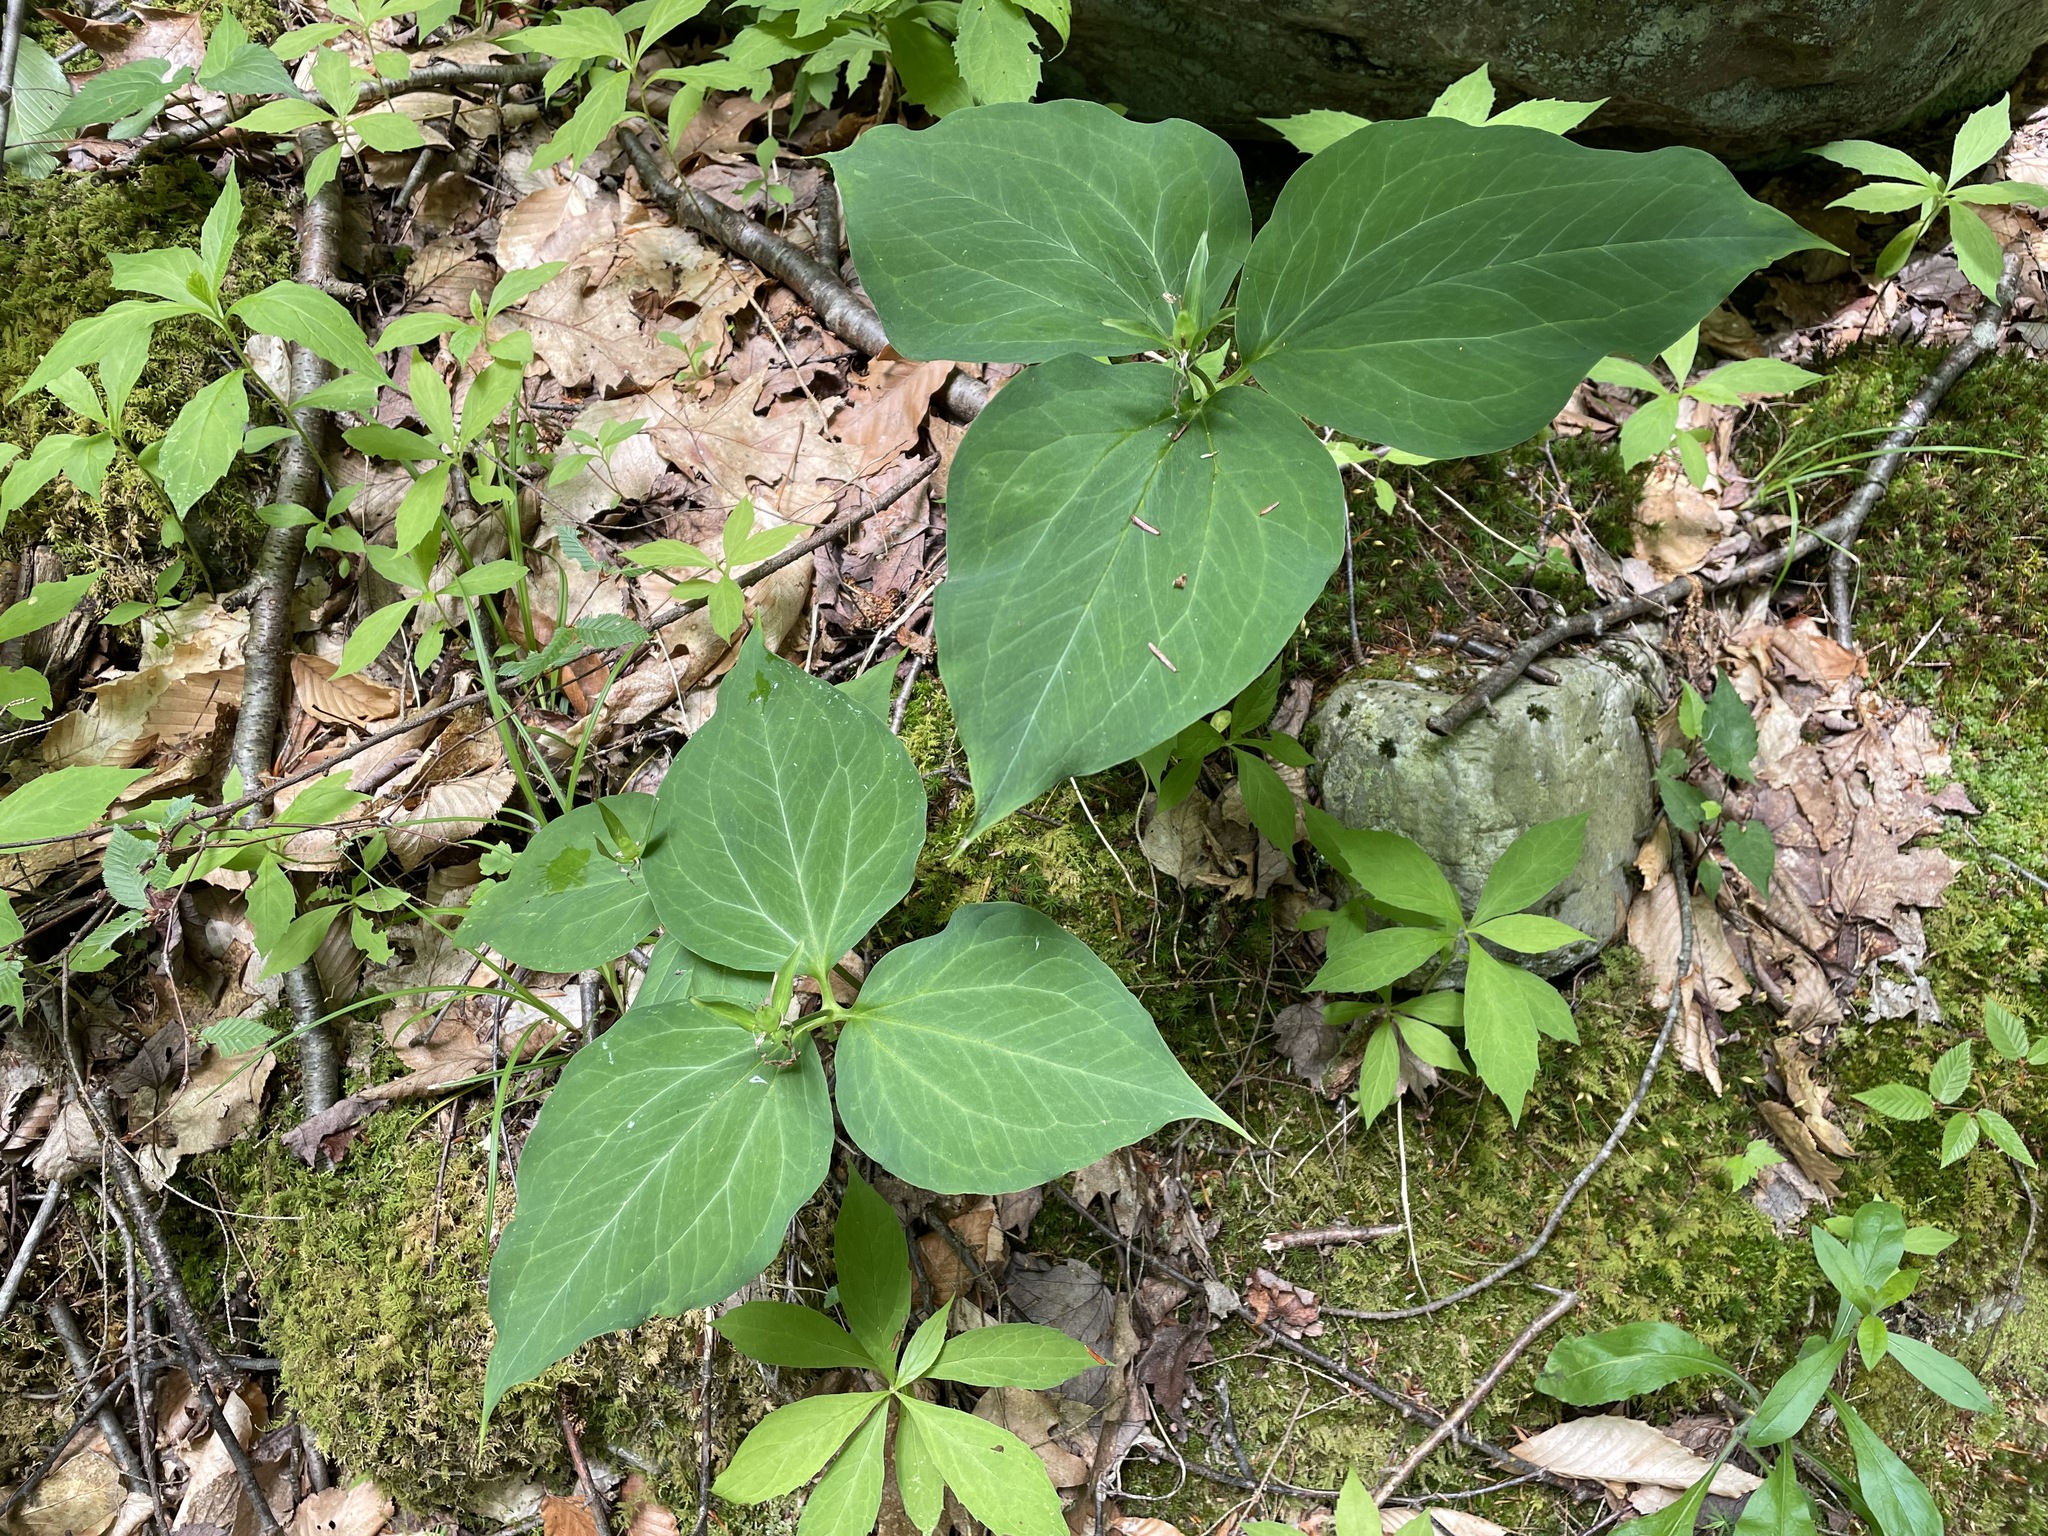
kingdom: Plantae
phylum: Tracheophyta
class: Liliopsida
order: Liliales
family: Melanthiaceae
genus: Trillium
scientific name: Trillium undulatum
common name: Paint trillium
